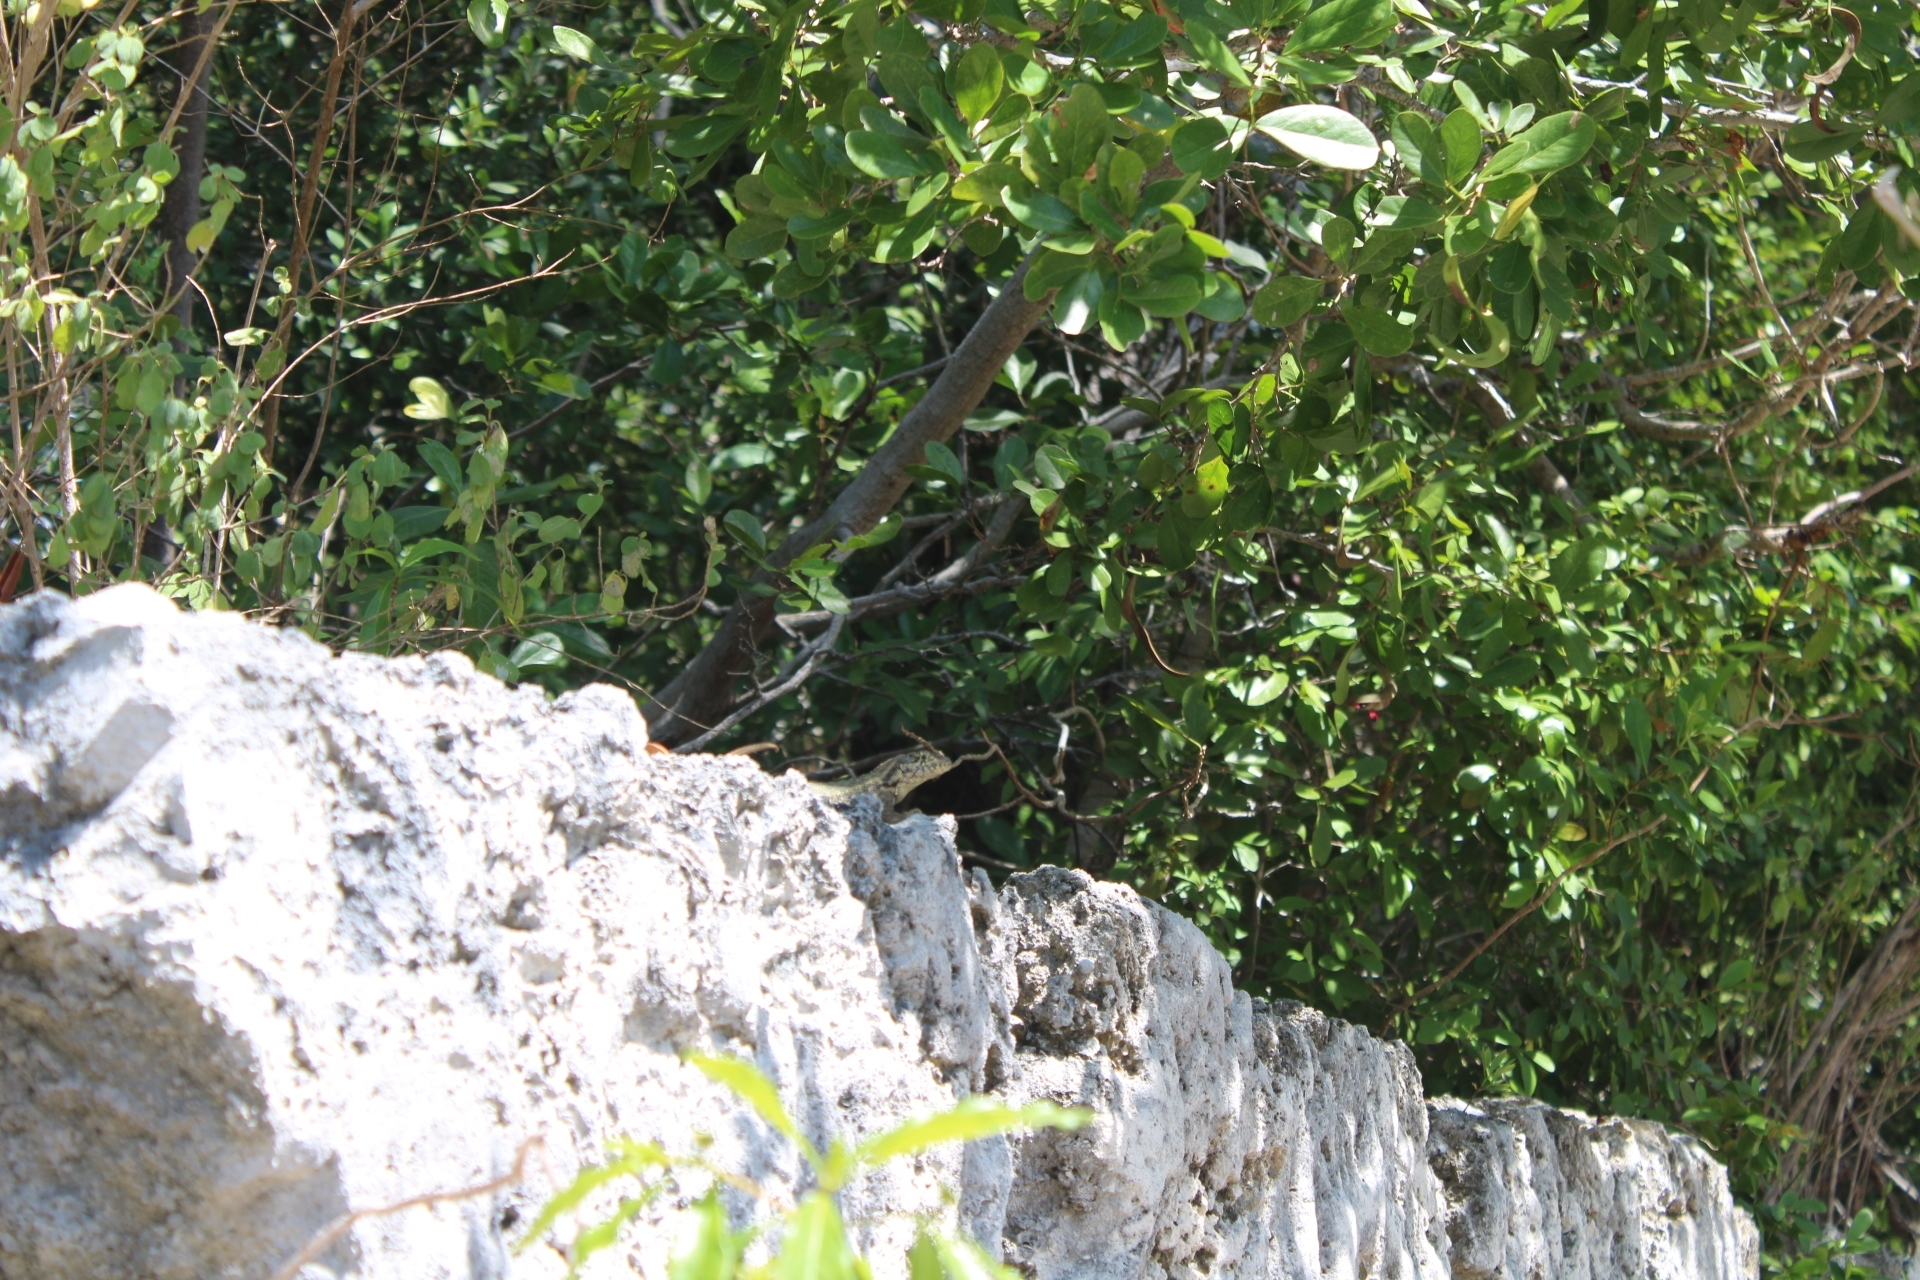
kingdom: Animalia
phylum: Chordata
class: Squamata
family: Leiocephalidae
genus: Leiocephalus
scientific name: Leiocephalus carinatus
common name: Northern curly-tailed lizard
